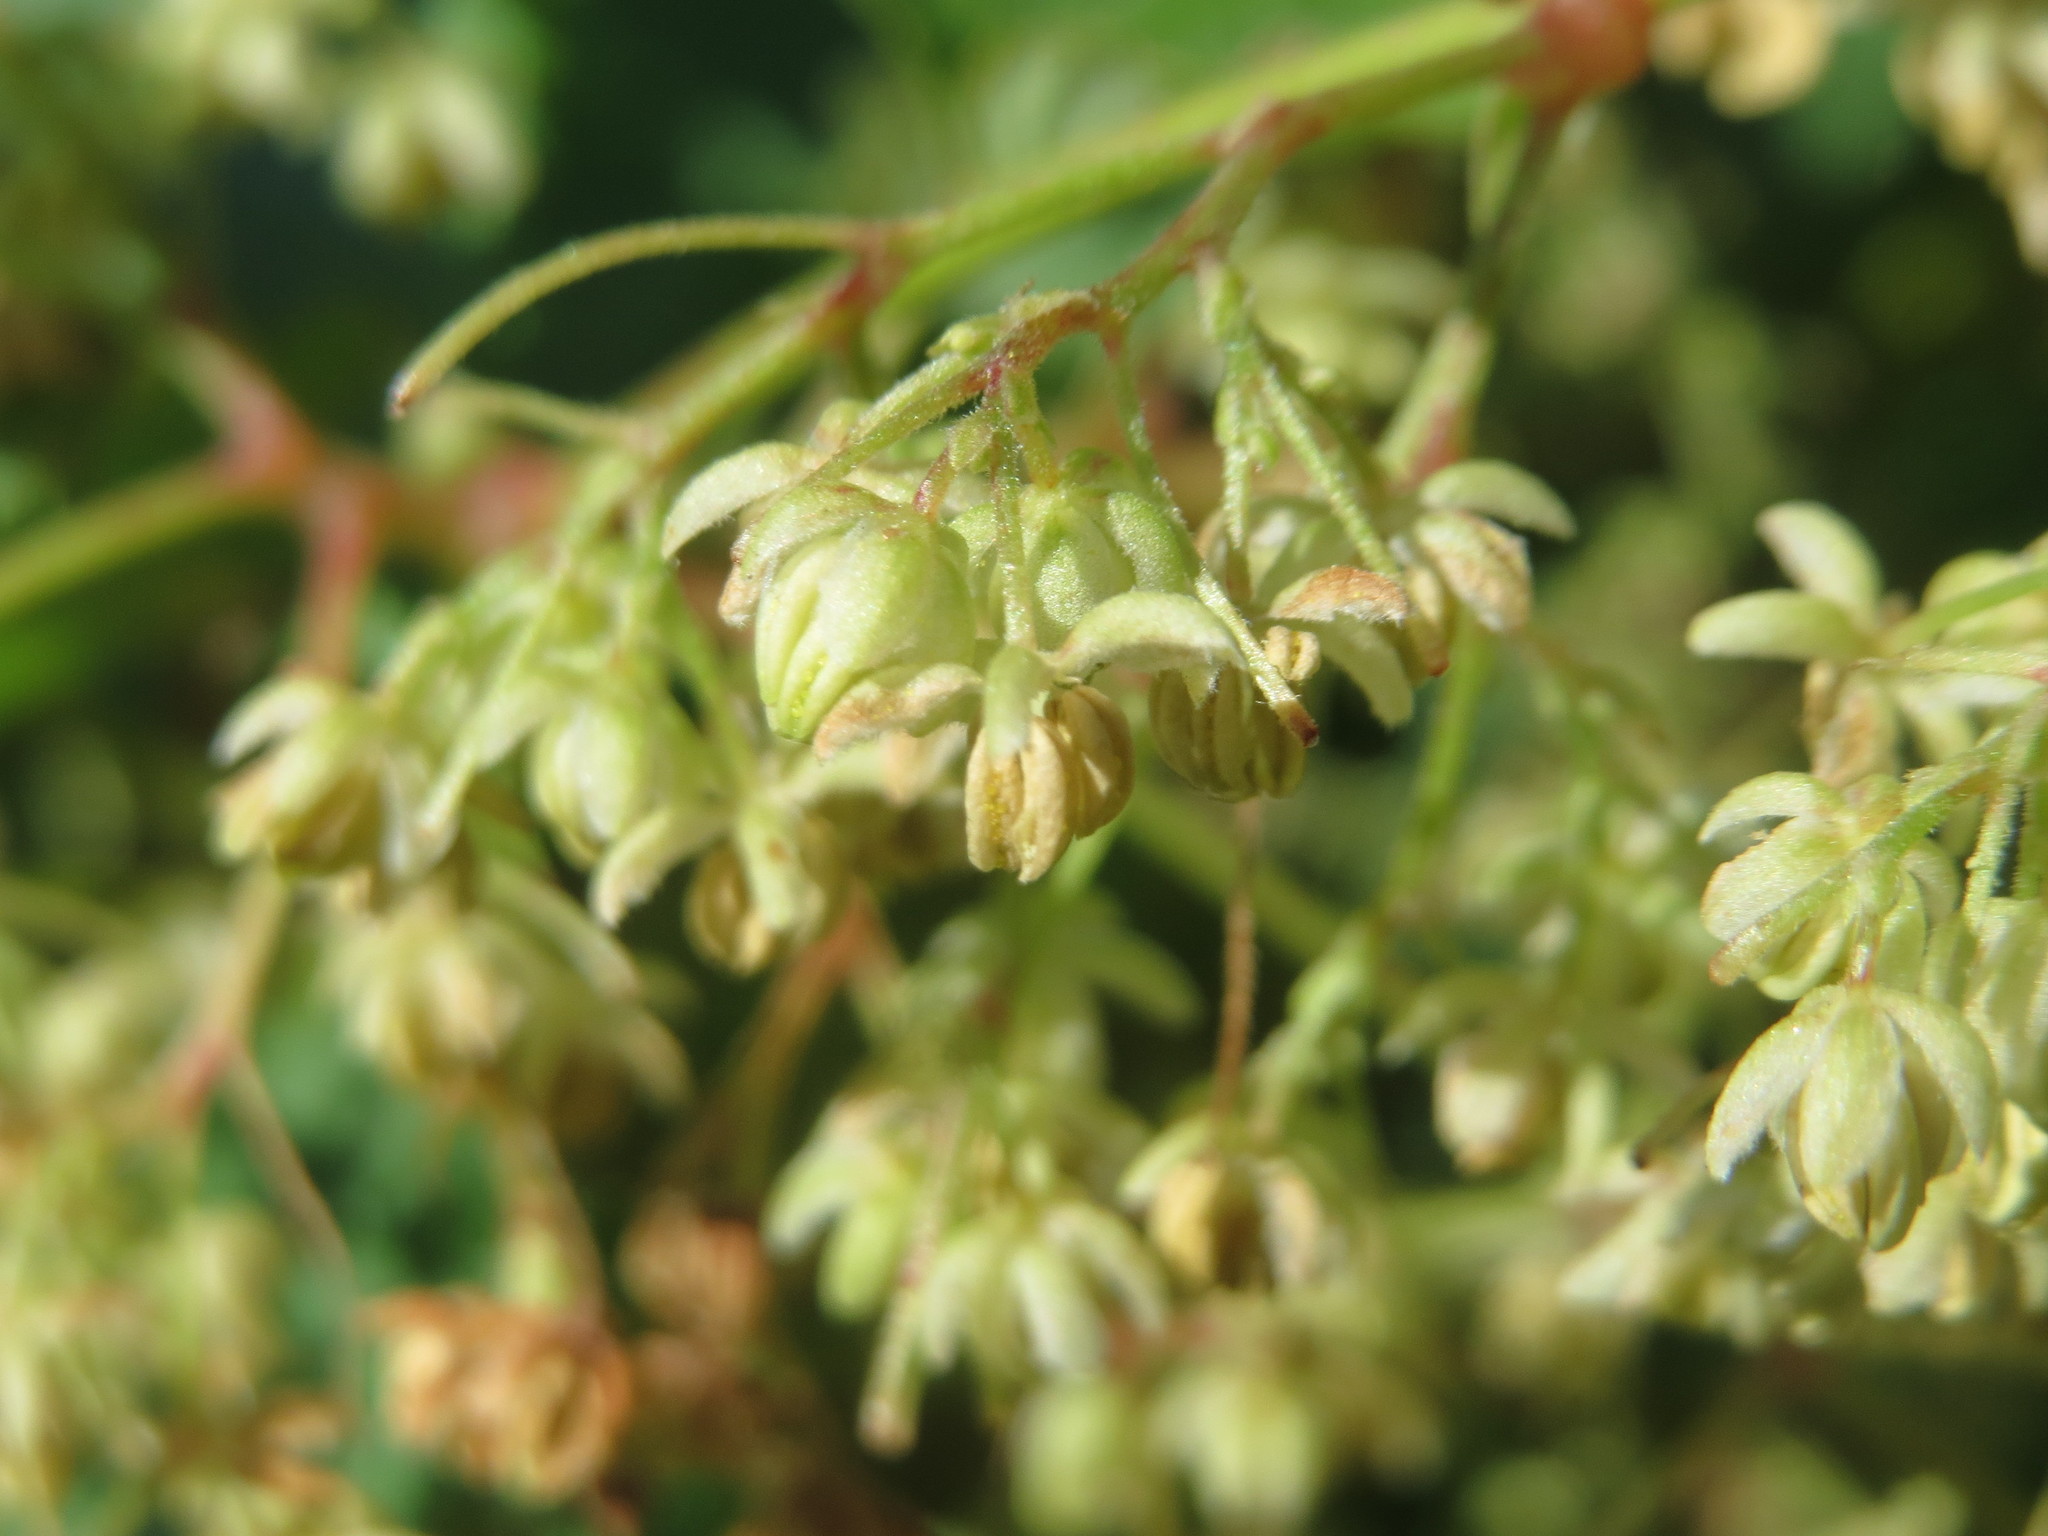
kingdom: Plantae
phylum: Tracheophyta
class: Magnoliopsida
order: Rosales
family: Cannabaceae
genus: Humulus
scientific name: Humulus lupulus
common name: Hop
